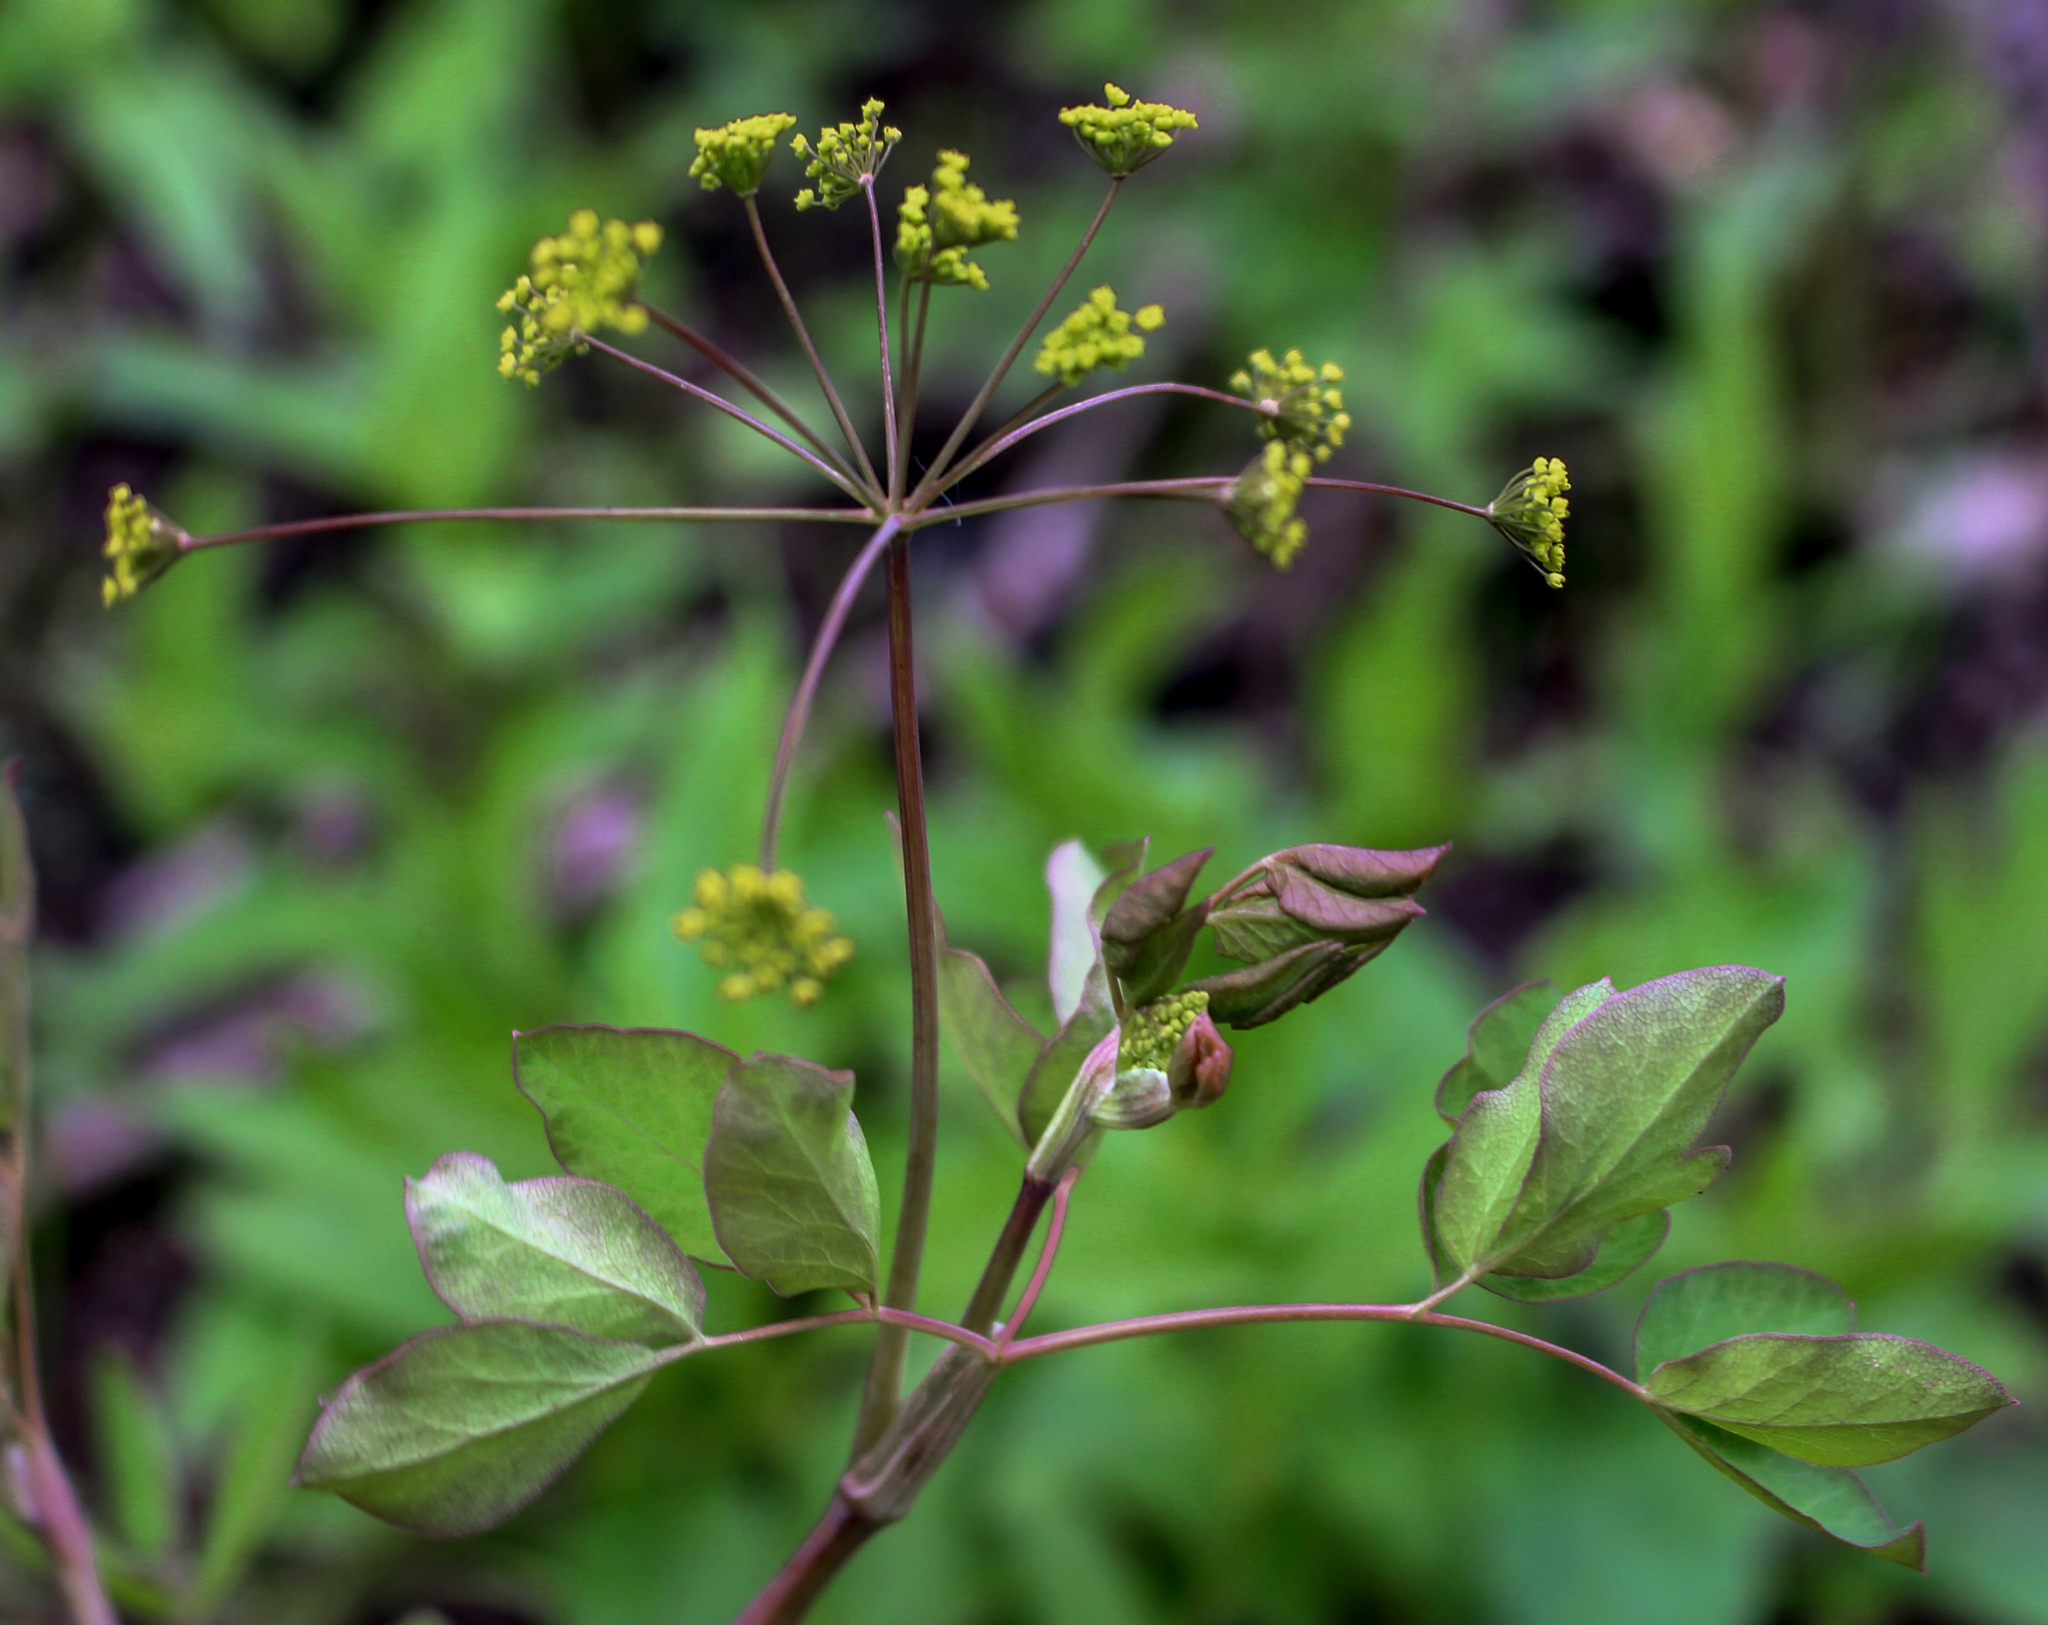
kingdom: Plantae
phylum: Tracheophyta
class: Magnoliopsida
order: Apiales
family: Apiaceae
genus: Taenidia
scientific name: Taenidia integerrima
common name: Golden alexander
